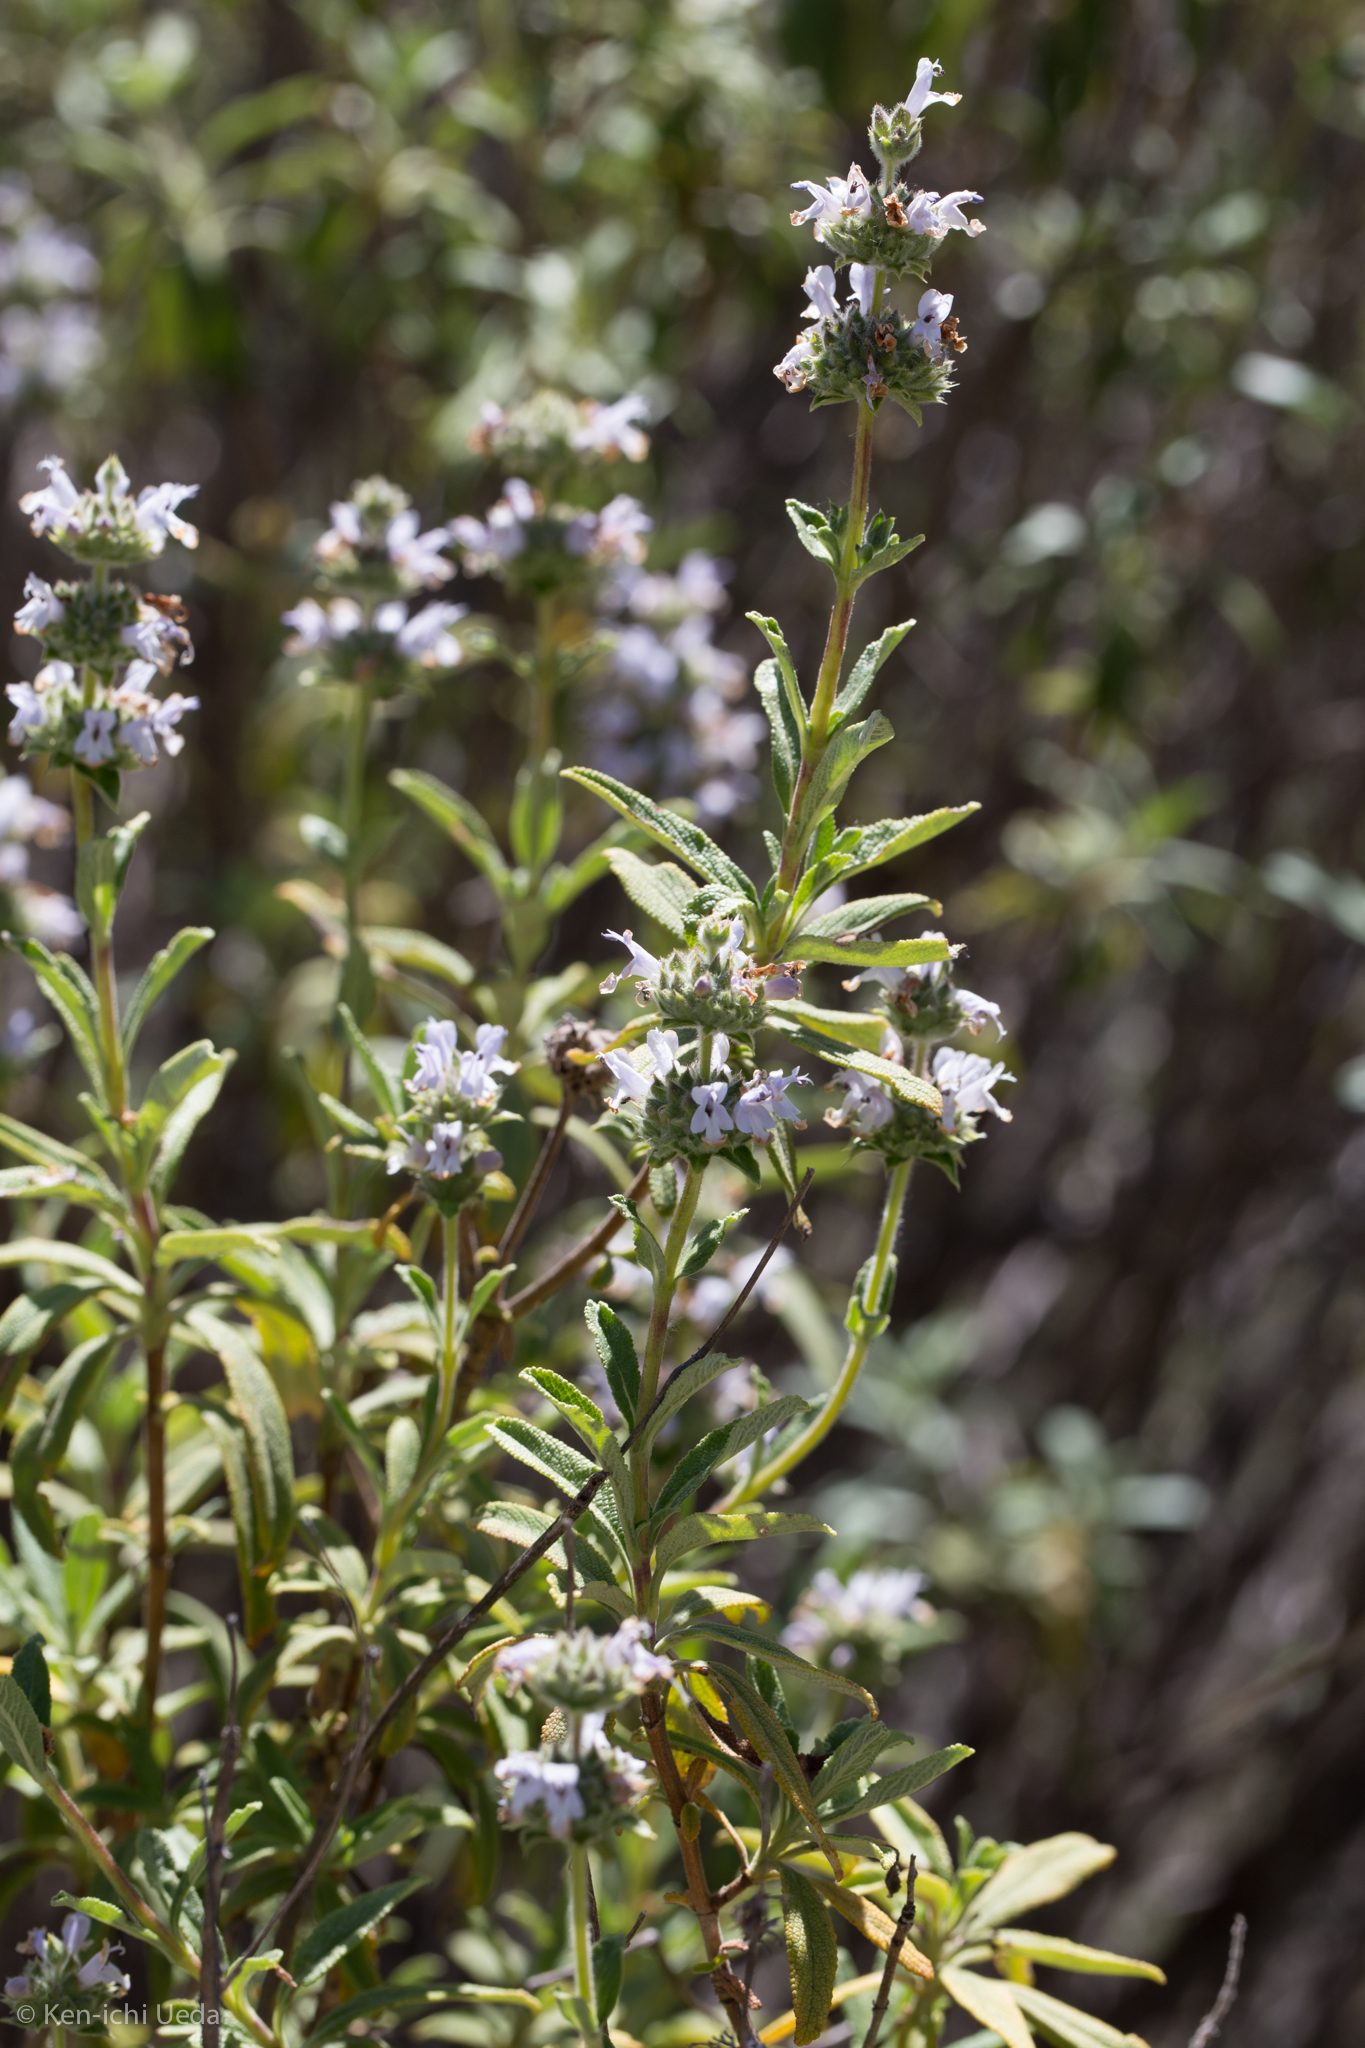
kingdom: Plantae
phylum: Tracheophyta
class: Magnoliopsida
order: Lamiales
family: Lamiaceae
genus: Salvia
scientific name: Salvia mellifera
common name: Black sage
